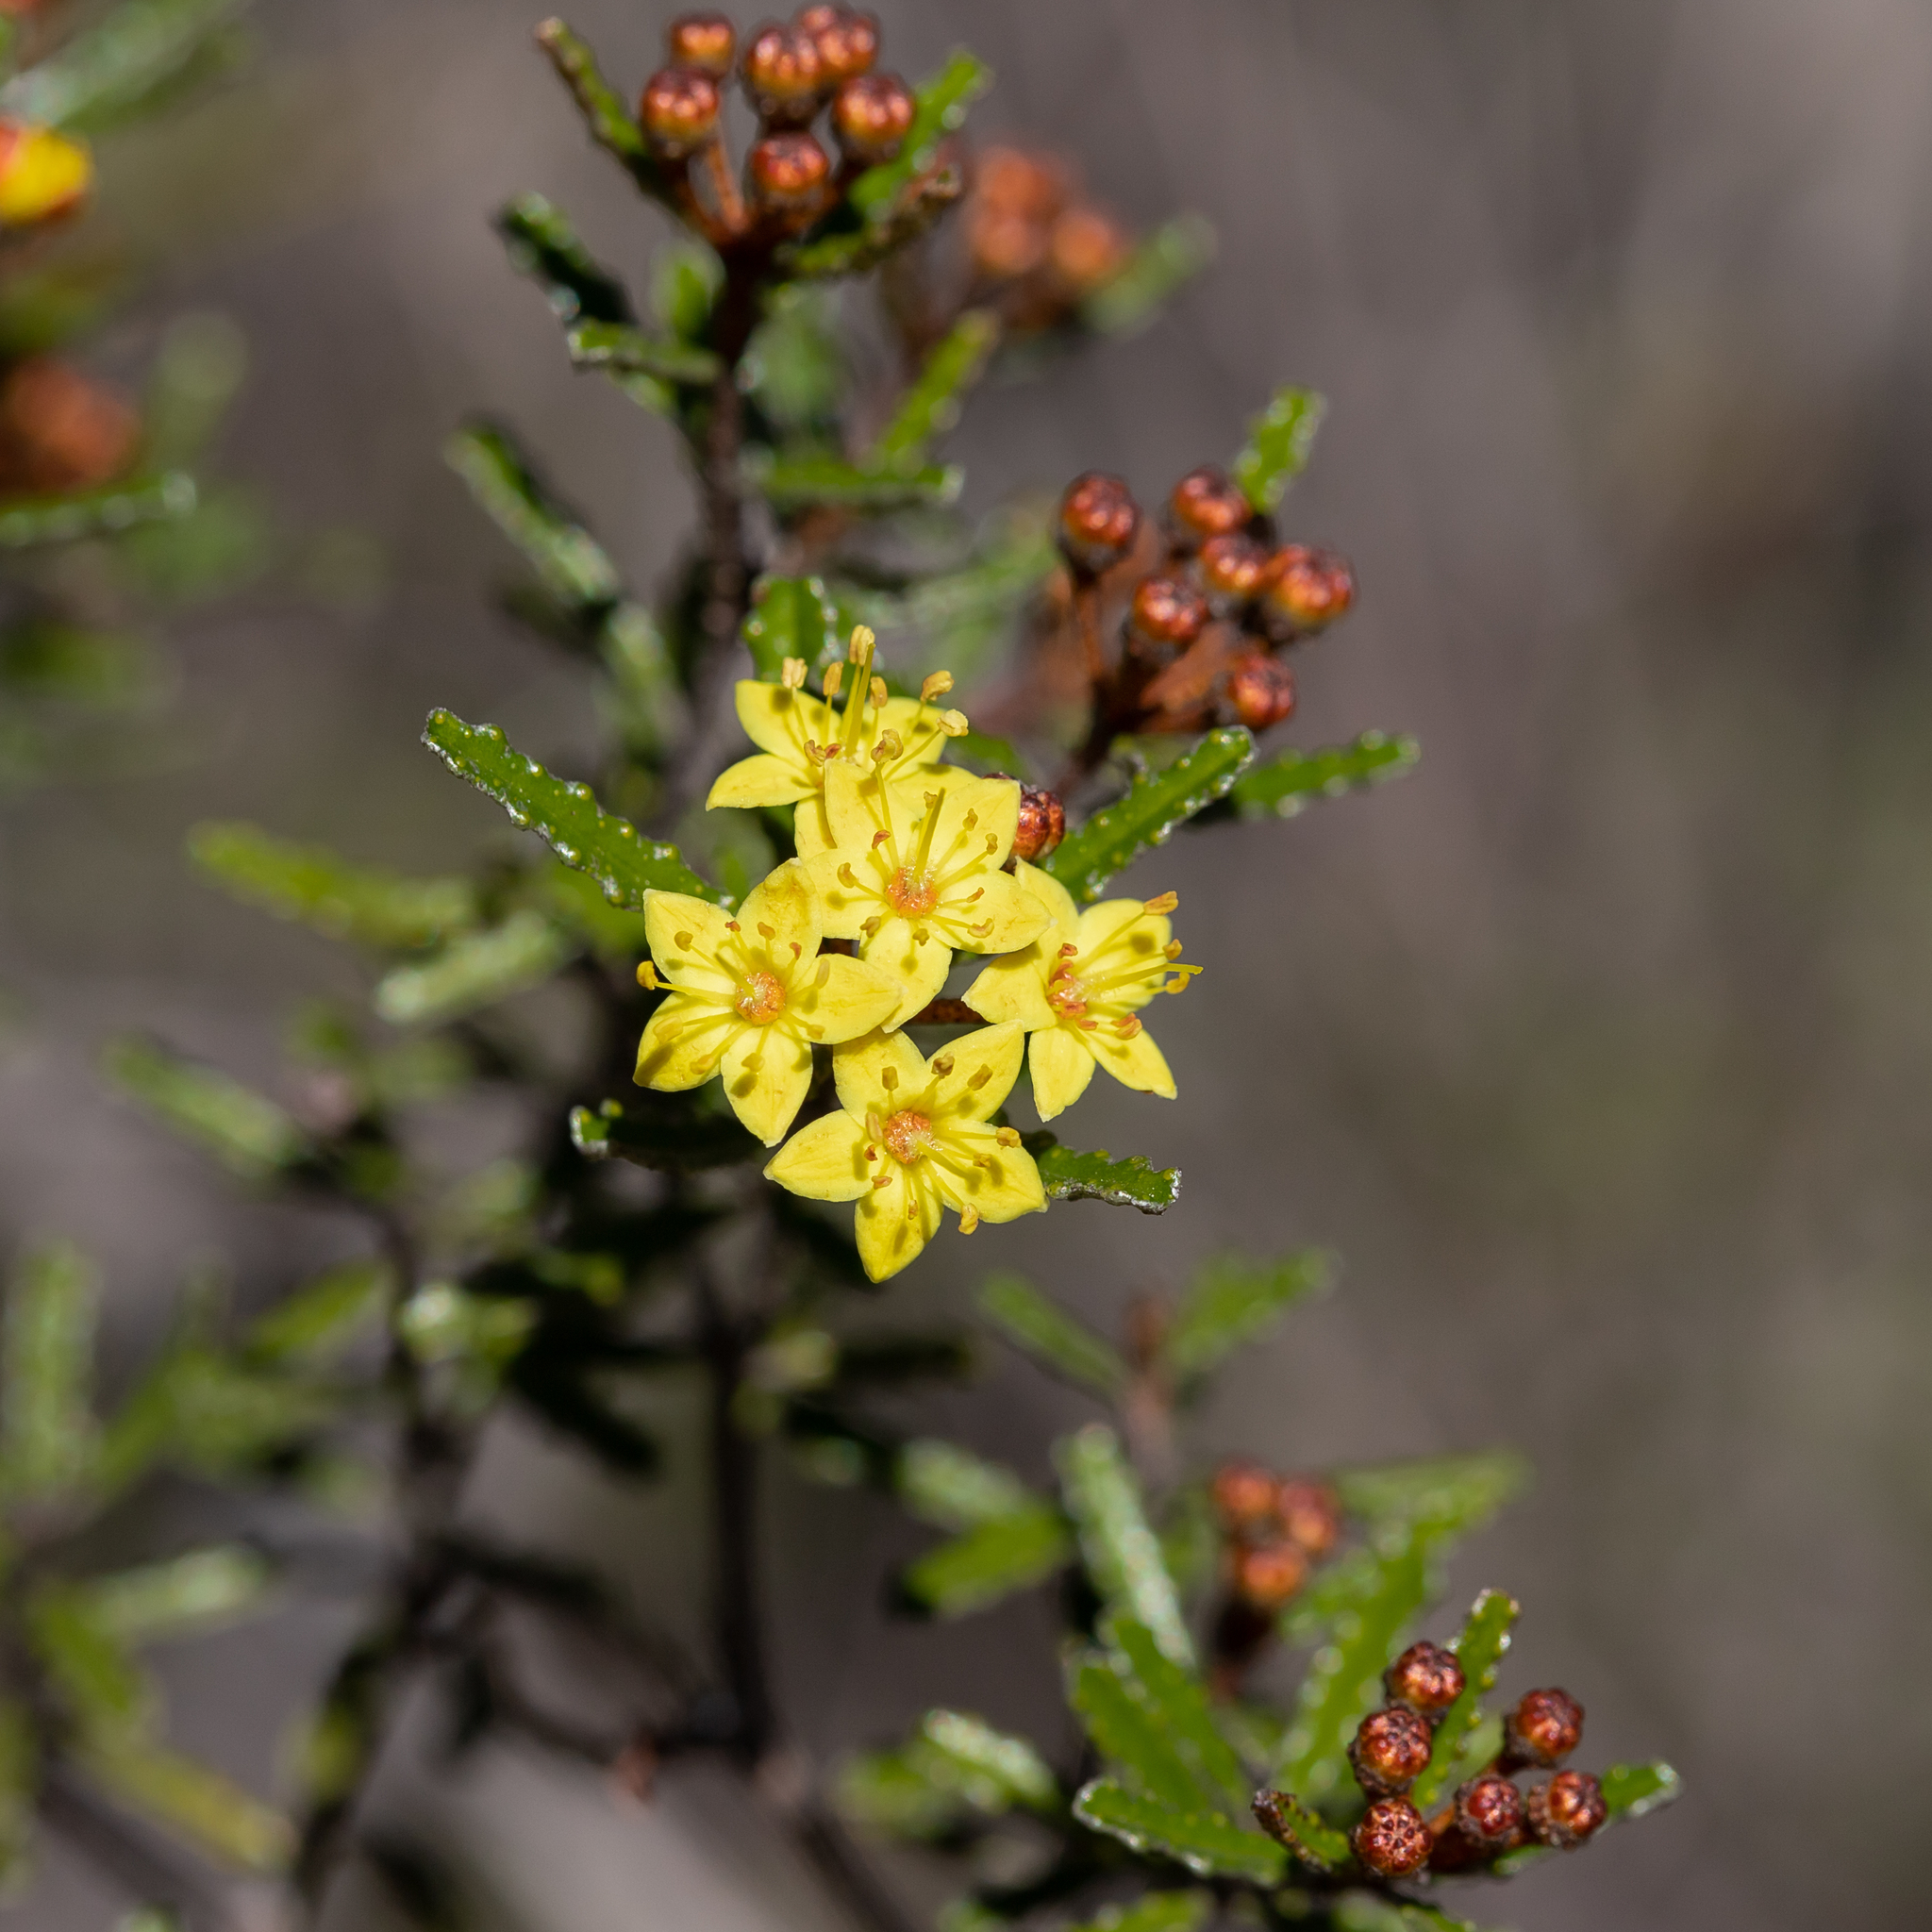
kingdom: Plantae
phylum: Tracheophyta
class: Magnoliopsida
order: Sapindales
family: Rutaceae
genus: Phebalium
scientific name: Phebalium bullatum
